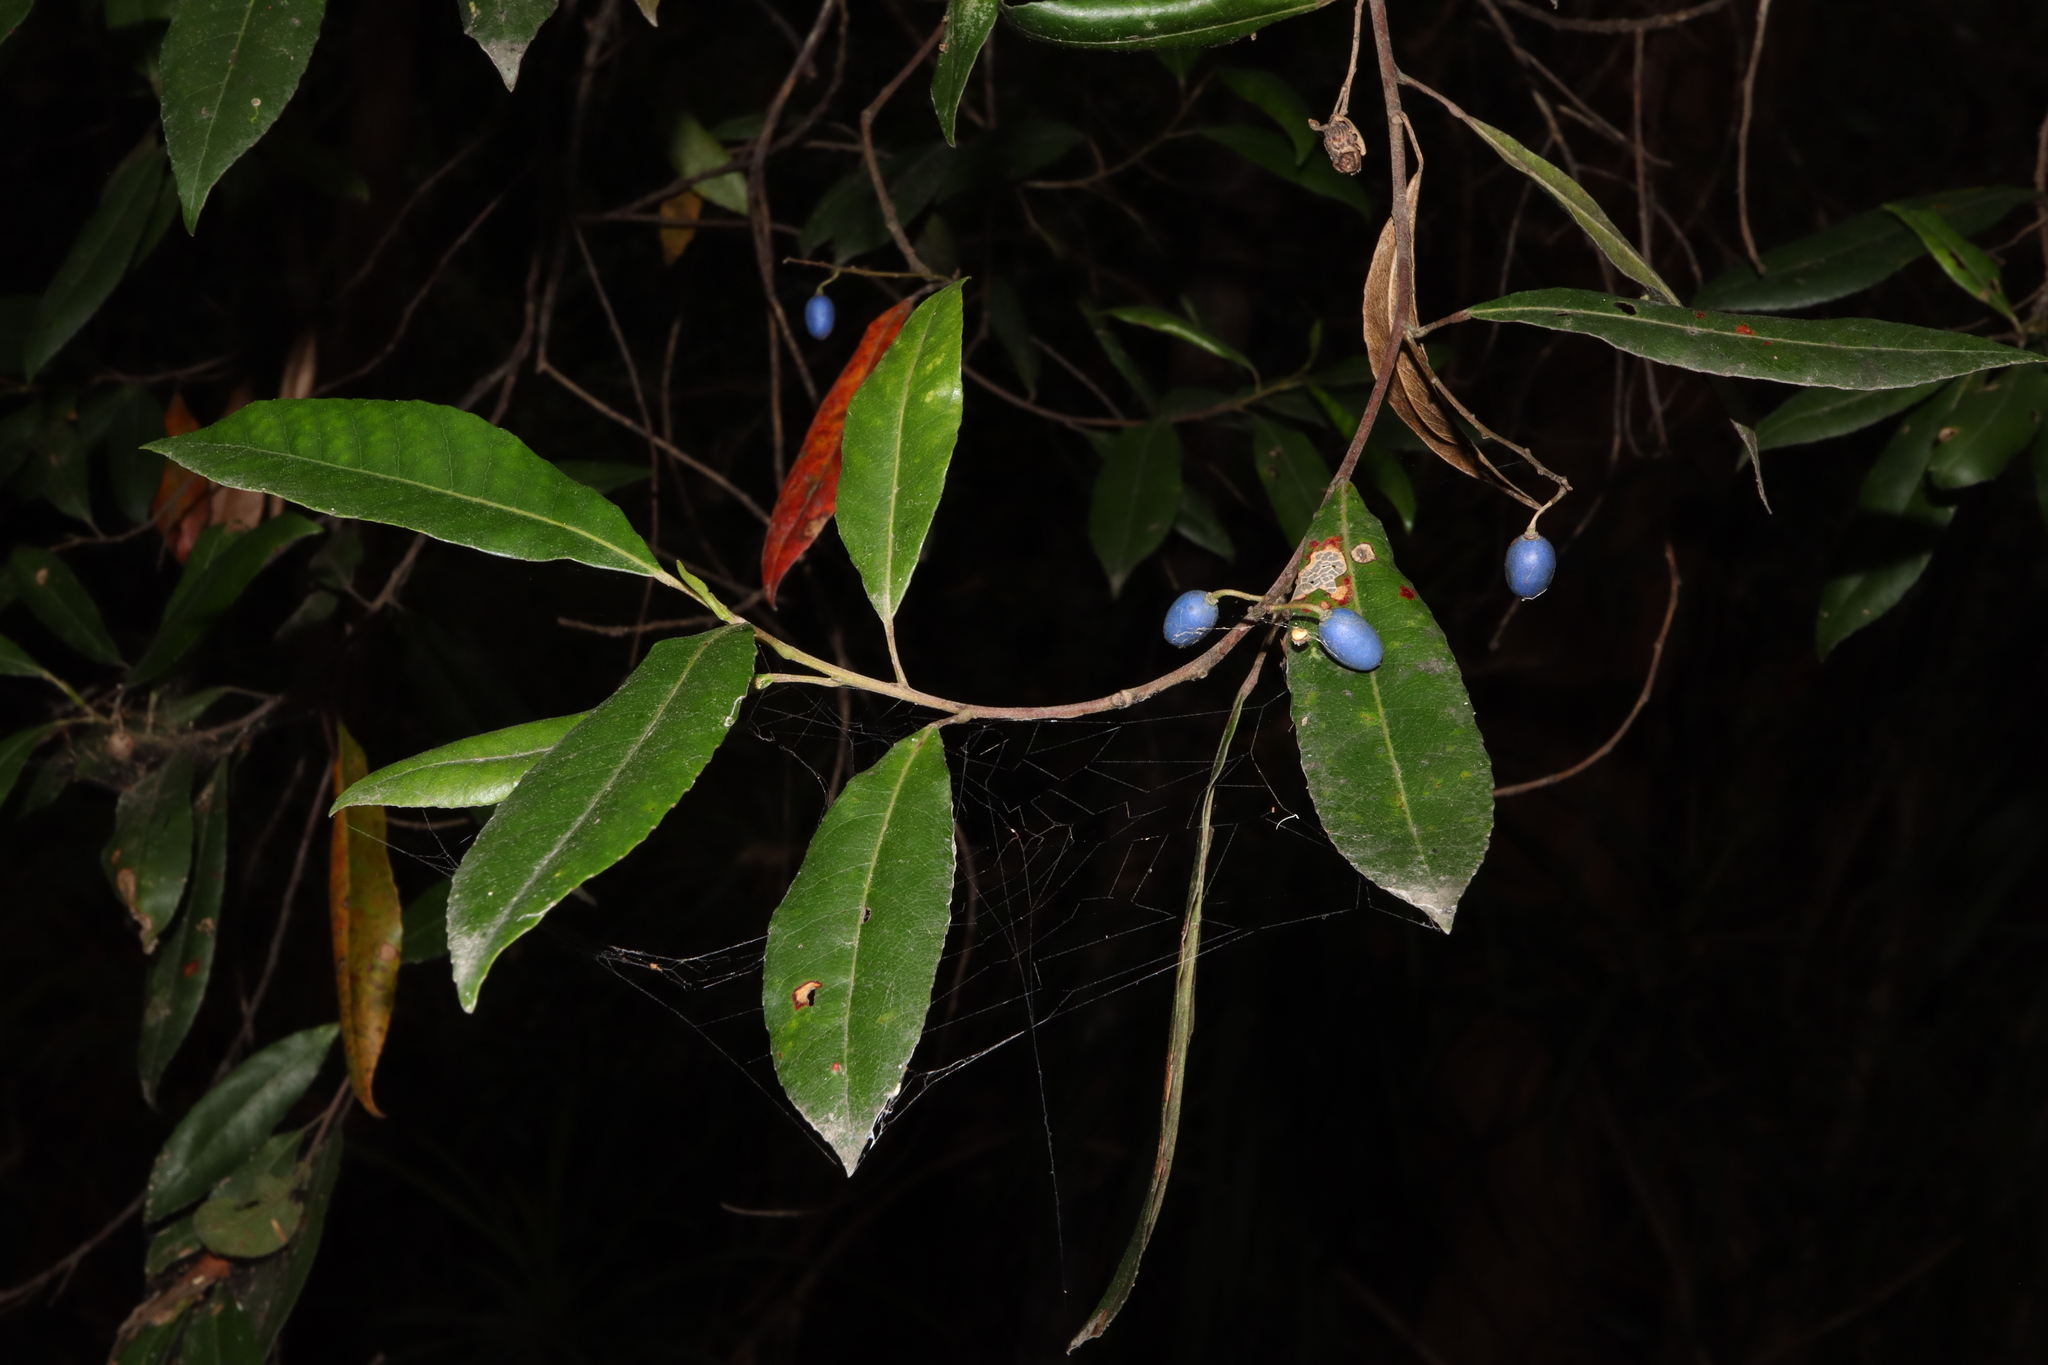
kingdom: Plantae
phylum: Tracheophyta
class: Magnoliopsida
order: Oxalidales
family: Elaeocarpaceae
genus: Elaeocarpus
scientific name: Elaeocarpus reticulatus
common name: Ash quandong
